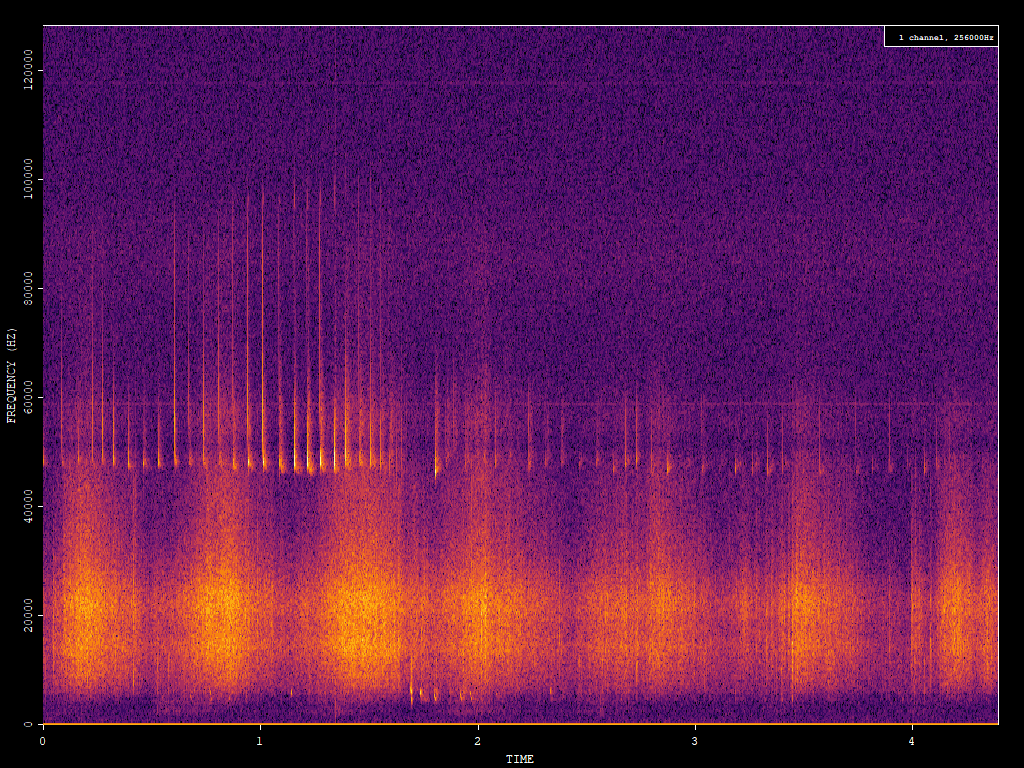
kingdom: Animalia
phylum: Chordata
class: Mammalia
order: Chiroptera
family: Vespertilionidae
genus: Pipistrellus
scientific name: Pipistrellus pipistrellus
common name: Common pipistrelle
